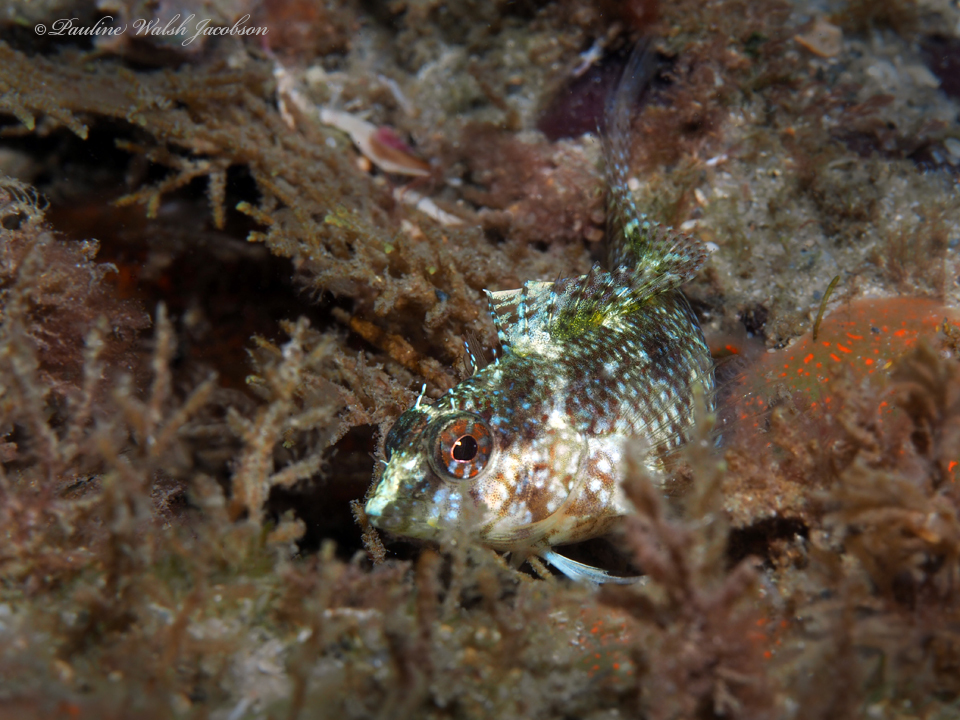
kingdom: Animalia
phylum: Chordata
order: Perciformes
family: Labrisomidae
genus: Malacoctenus
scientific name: Malacoctenus macropus
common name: Rosy blenny
